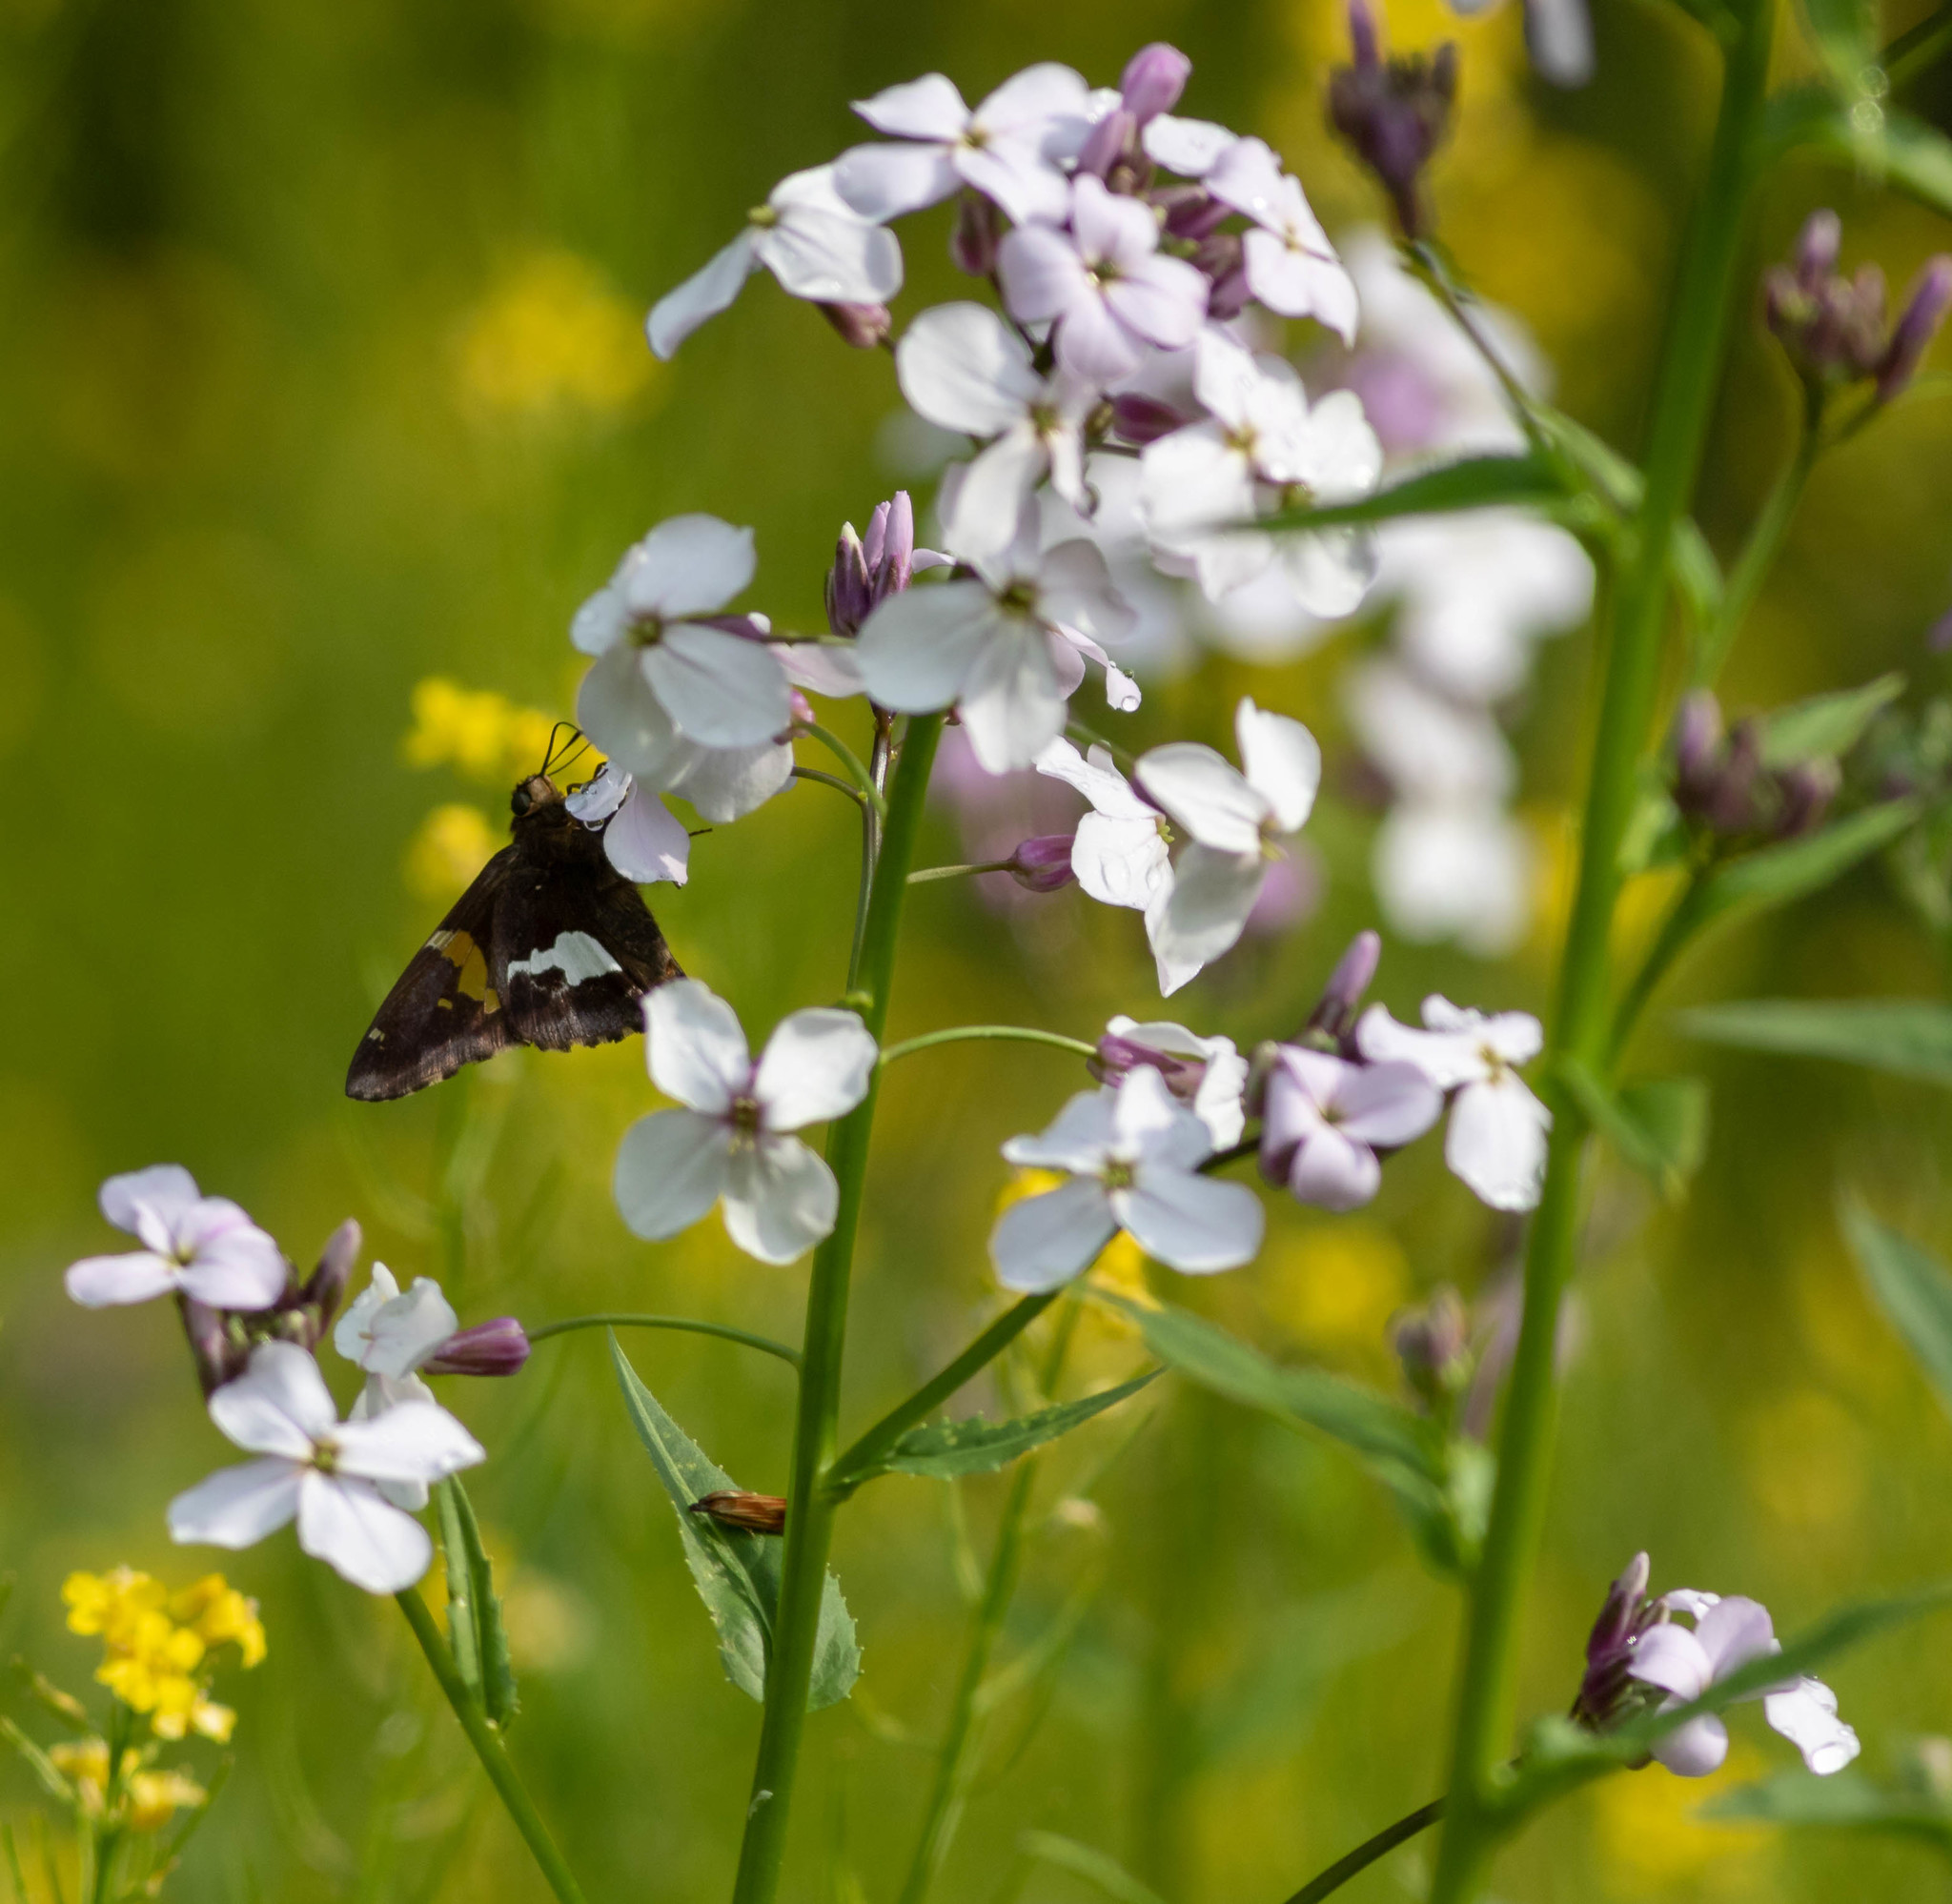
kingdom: Animalia
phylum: Arthropoda
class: Insecta
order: Lepidoptera
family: Hesperiidae
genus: Epargyreus
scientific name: Epargyreus clarus
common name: Silver-spotted skipper
